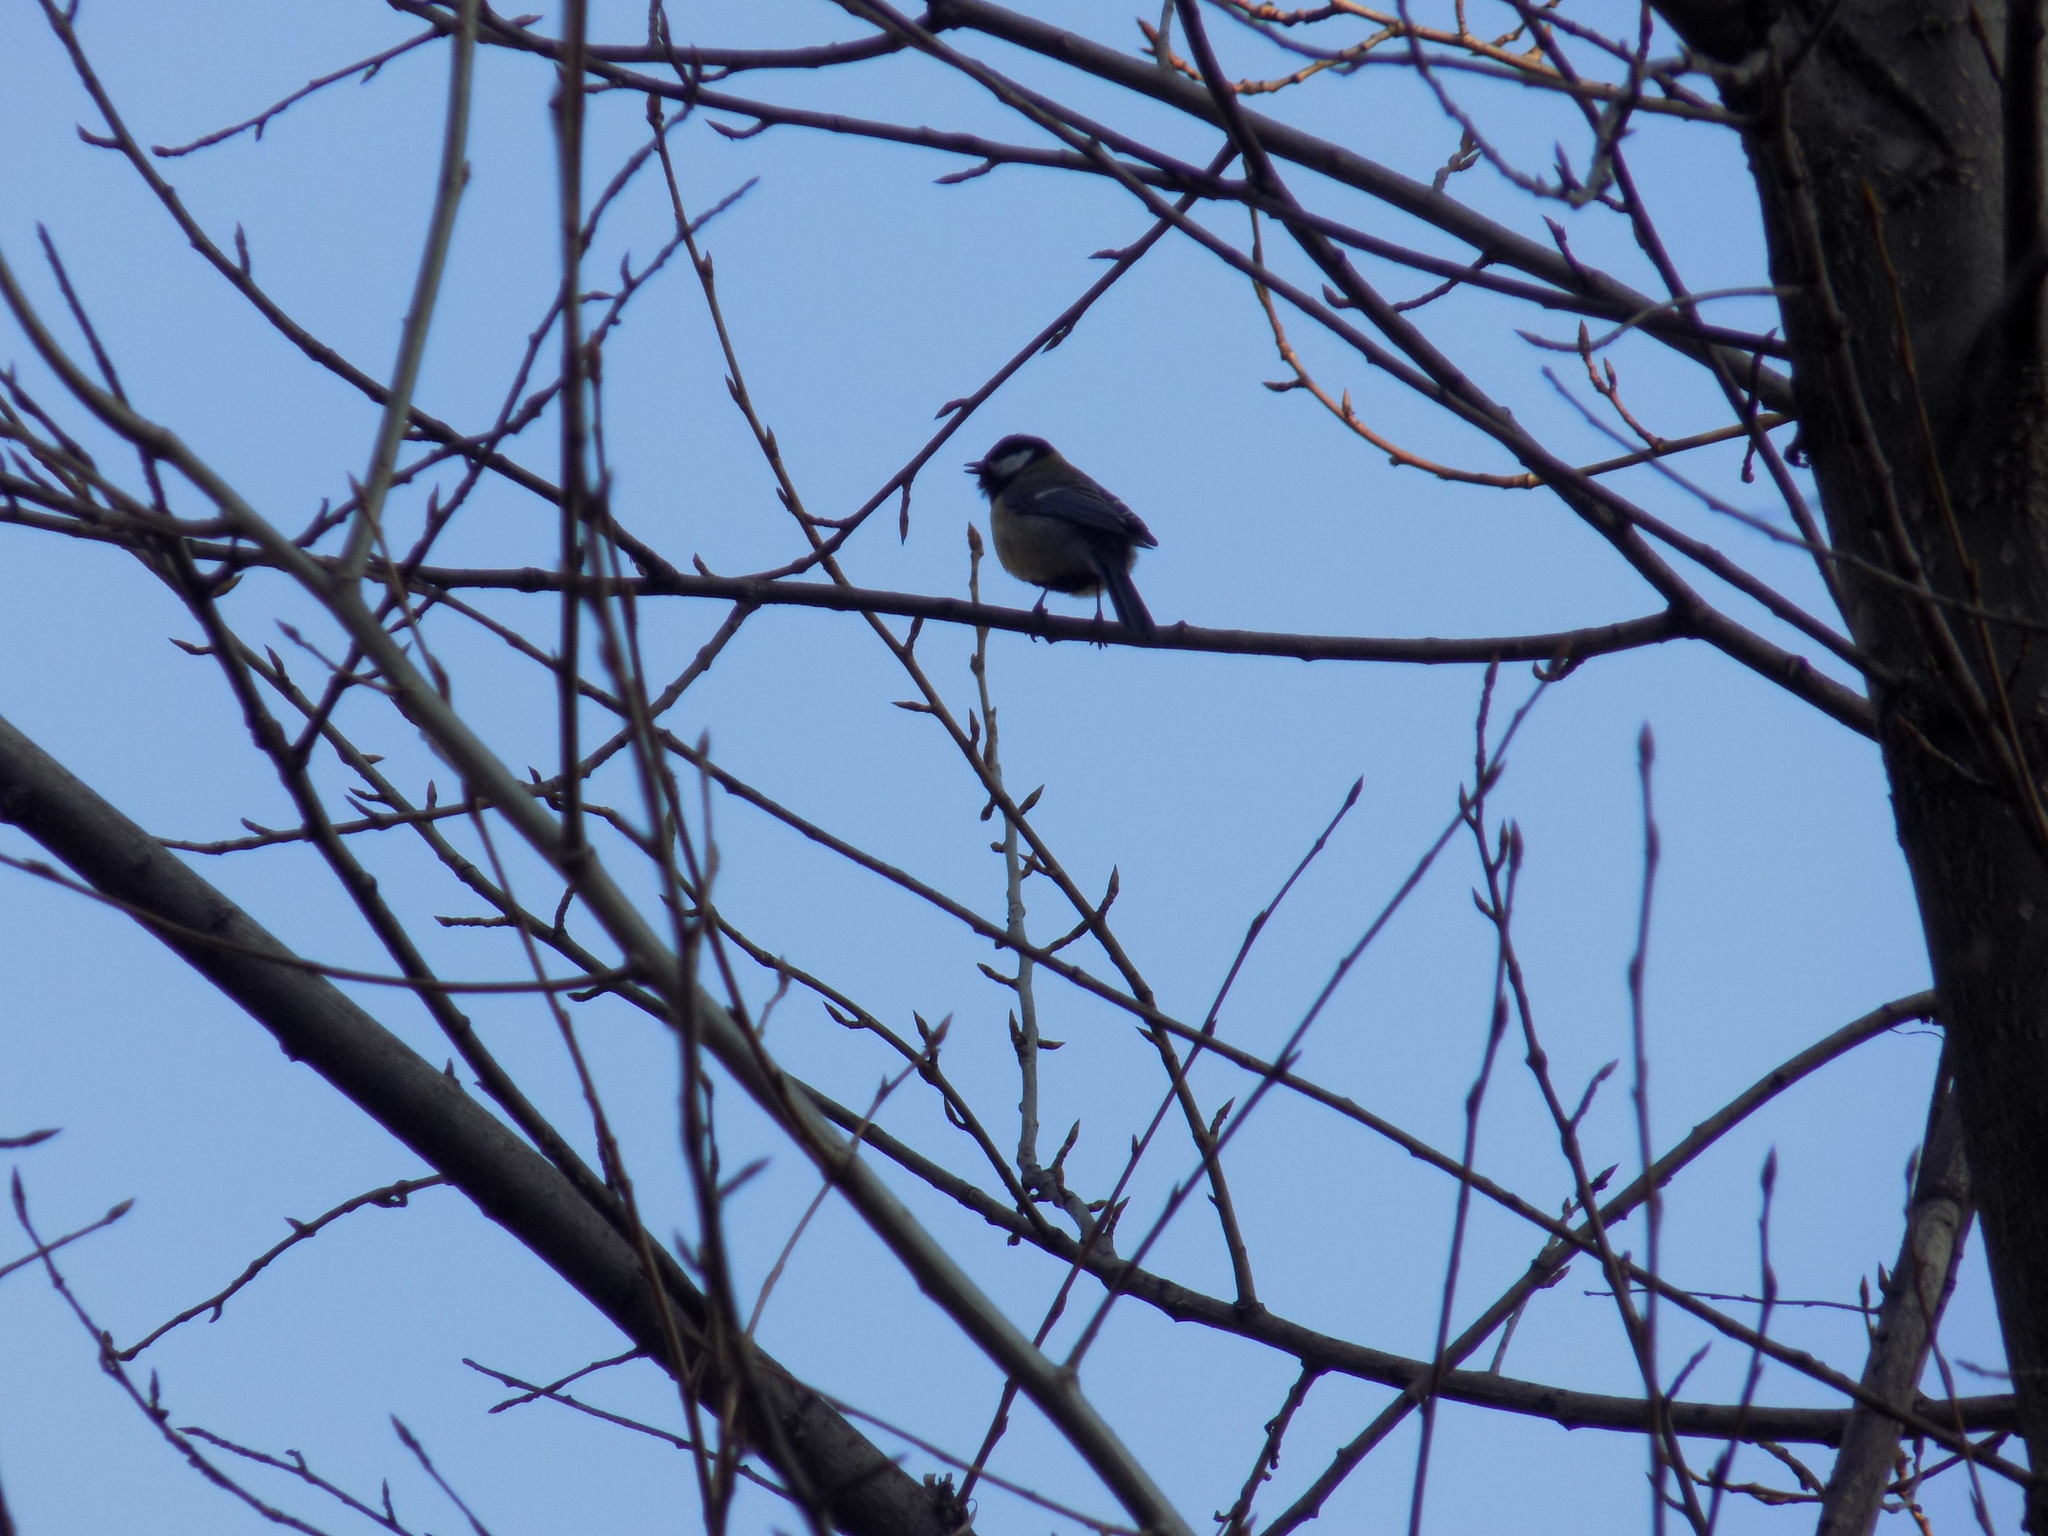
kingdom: Animalia
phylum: Chordata
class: Aves
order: Passeriformes
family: Paridae
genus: Parus
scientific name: Parus major
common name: Great tit
